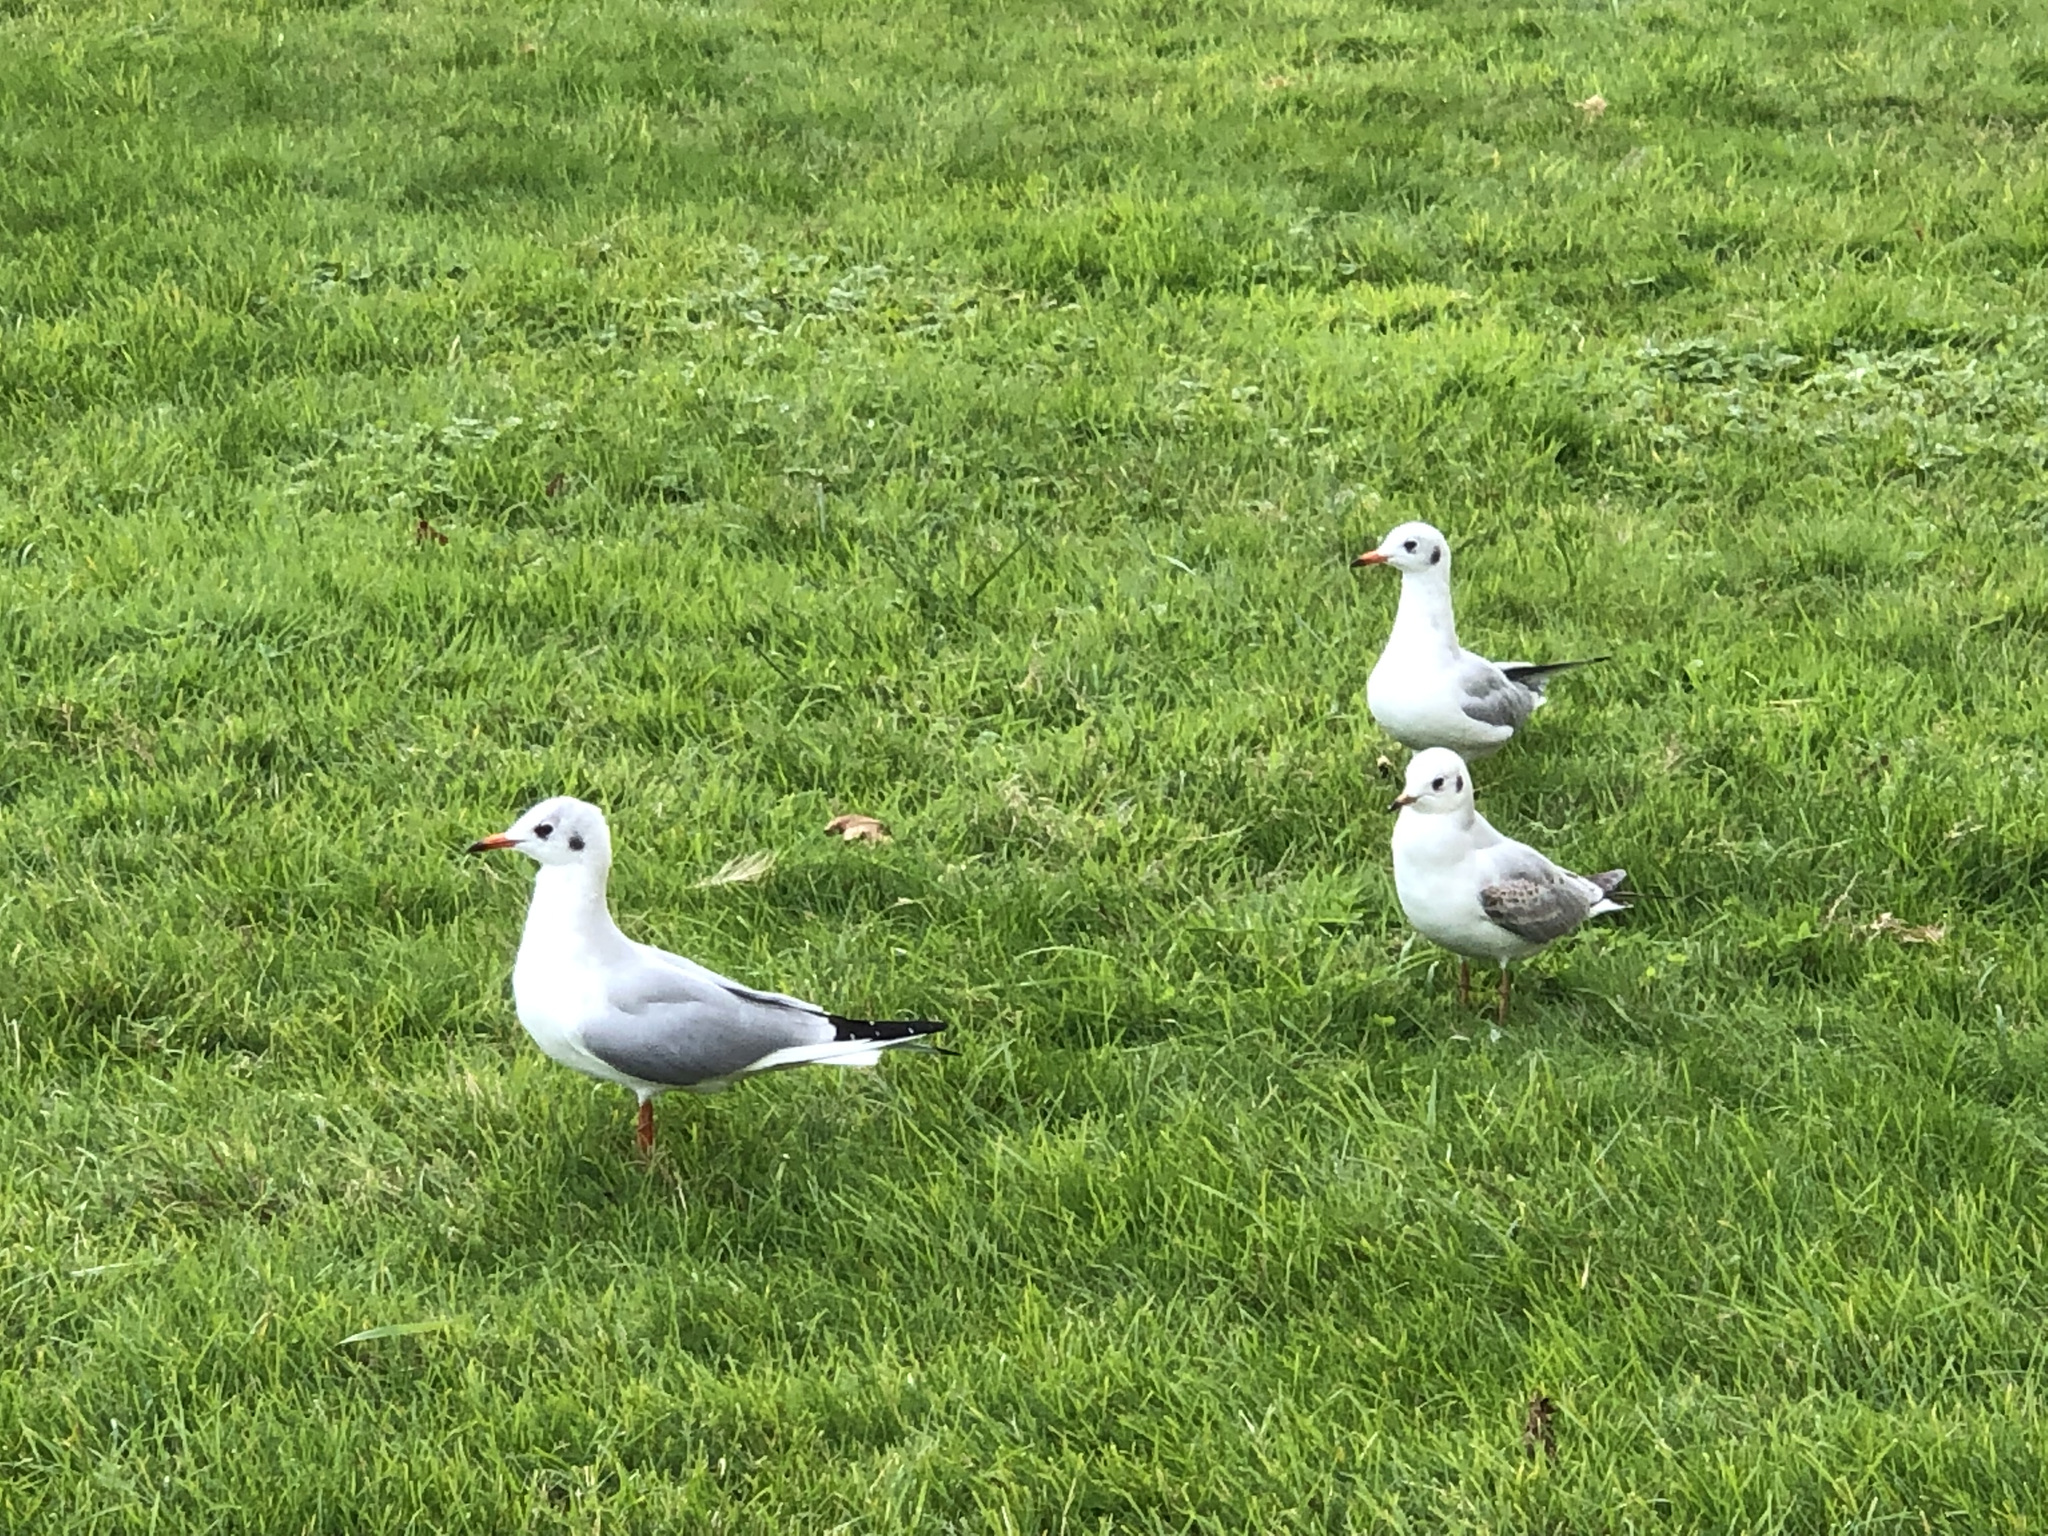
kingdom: Animalia
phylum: Chordata
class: Aves
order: Charadriiformes
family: Laridae
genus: Chroicocephalus
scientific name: Chroicocephalus ridibundus
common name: Black-headed gull
